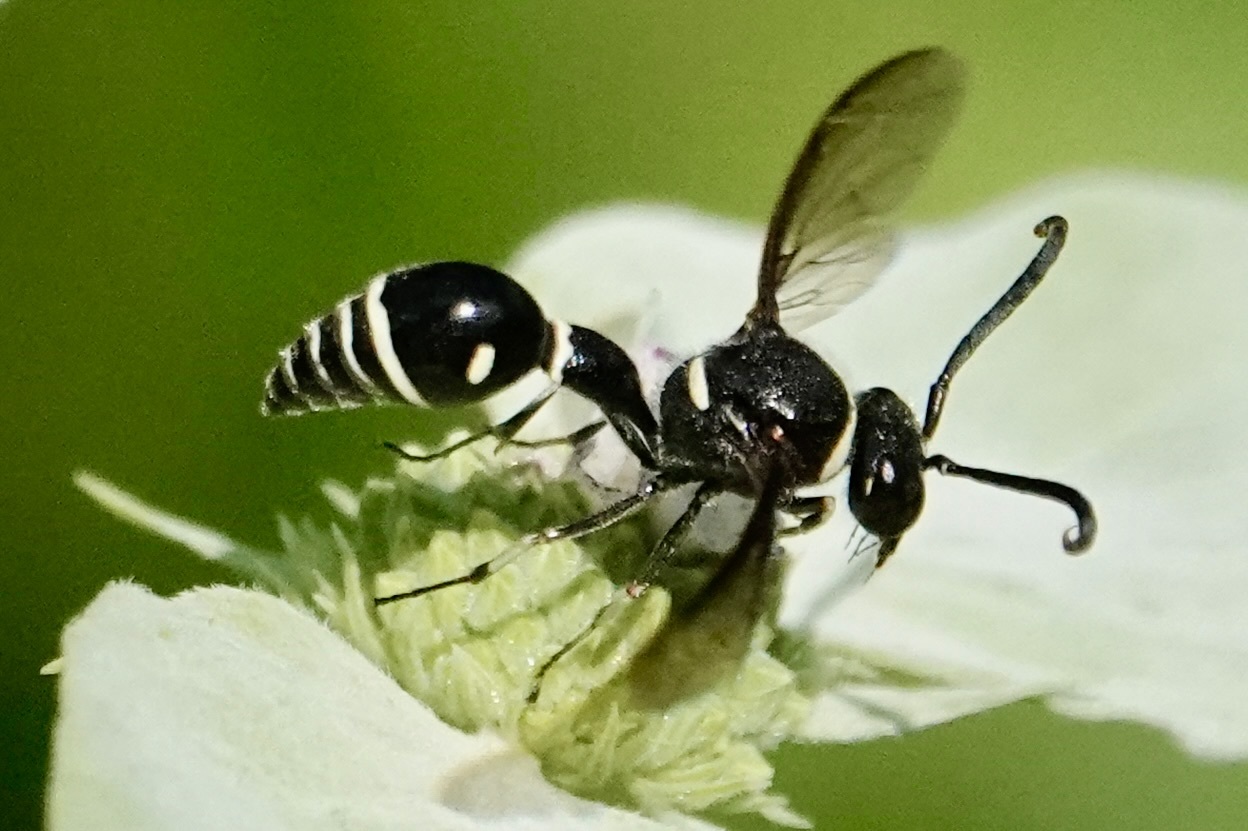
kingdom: Animalia
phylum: Arthropoda
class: Insecta
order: Hymenoptera
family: Vespidae
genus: Eumenes
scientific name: Eumenes fraternus
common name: Fraternal potter wasp
